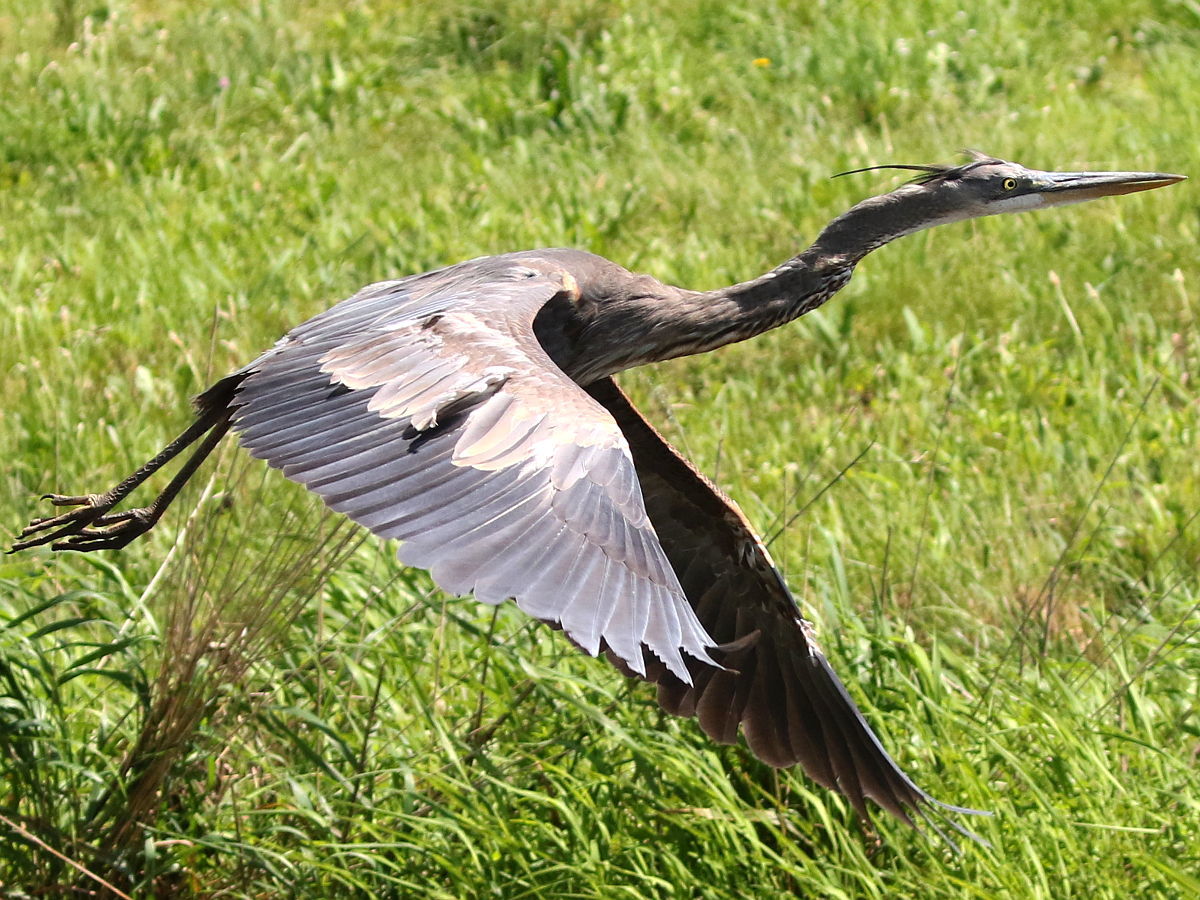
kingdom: Animalia
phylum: Chordata
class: Aves
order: Pelecaniformes
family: Ardeidae
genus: Ardea
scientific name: Ardea herodias
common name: Great blue heron
